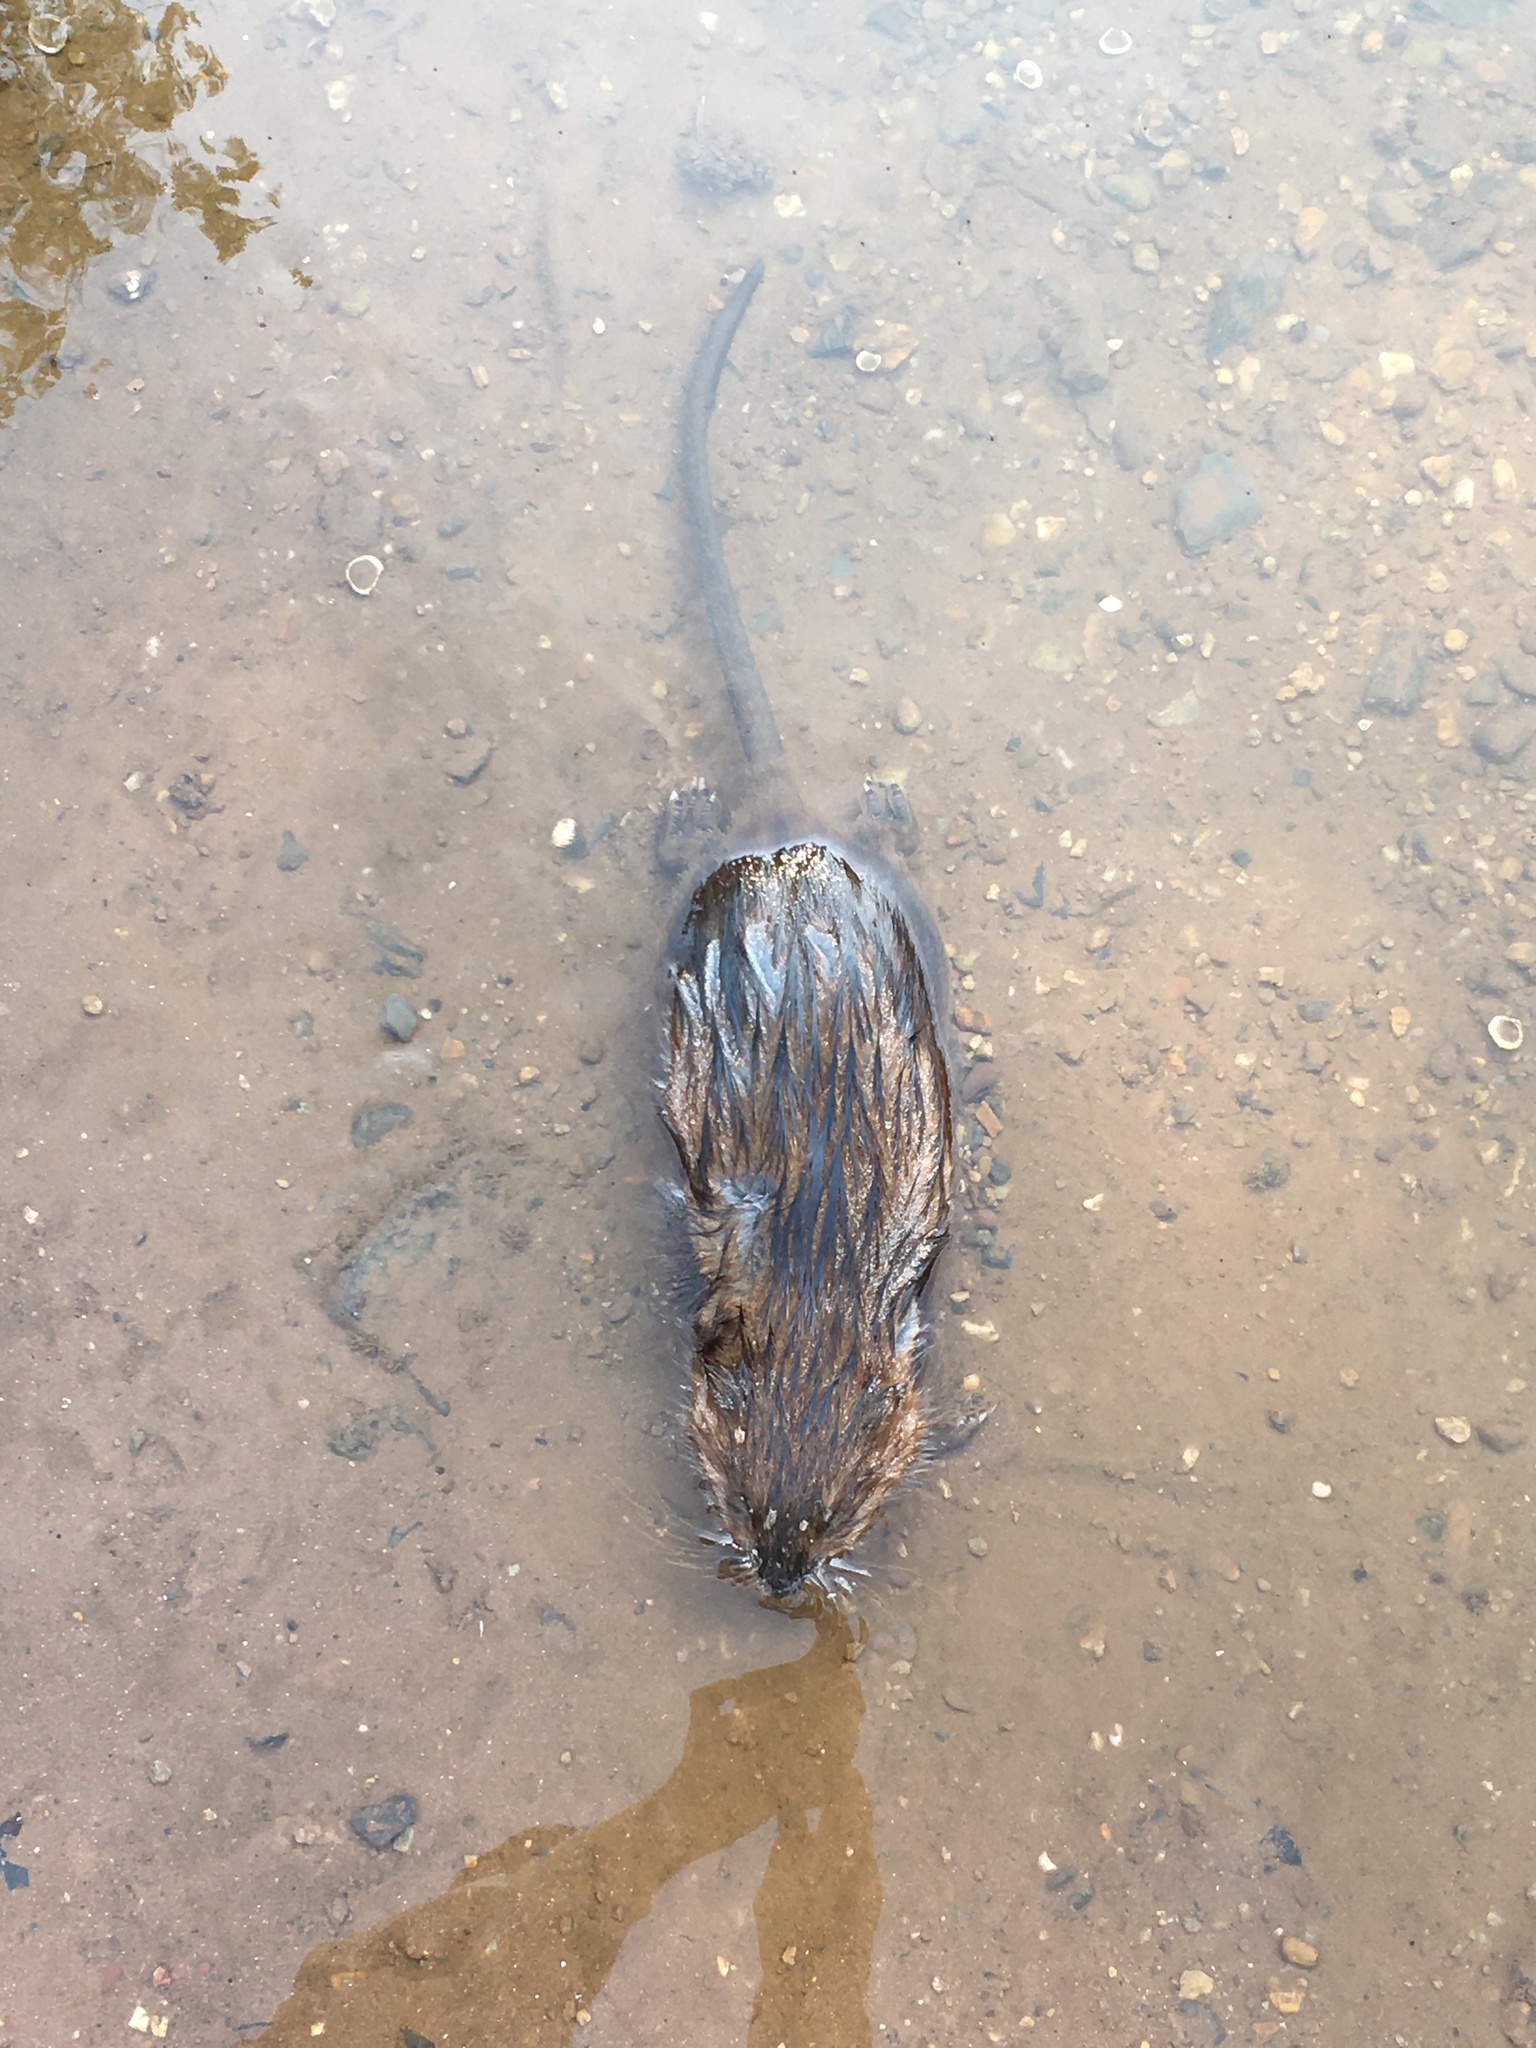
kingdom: Animalia
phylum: Chordata
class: Mammalia
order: Rodentia
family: Cricetidae
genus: Ondatra
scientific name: Ondatra zibethicus
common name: Muskrat
